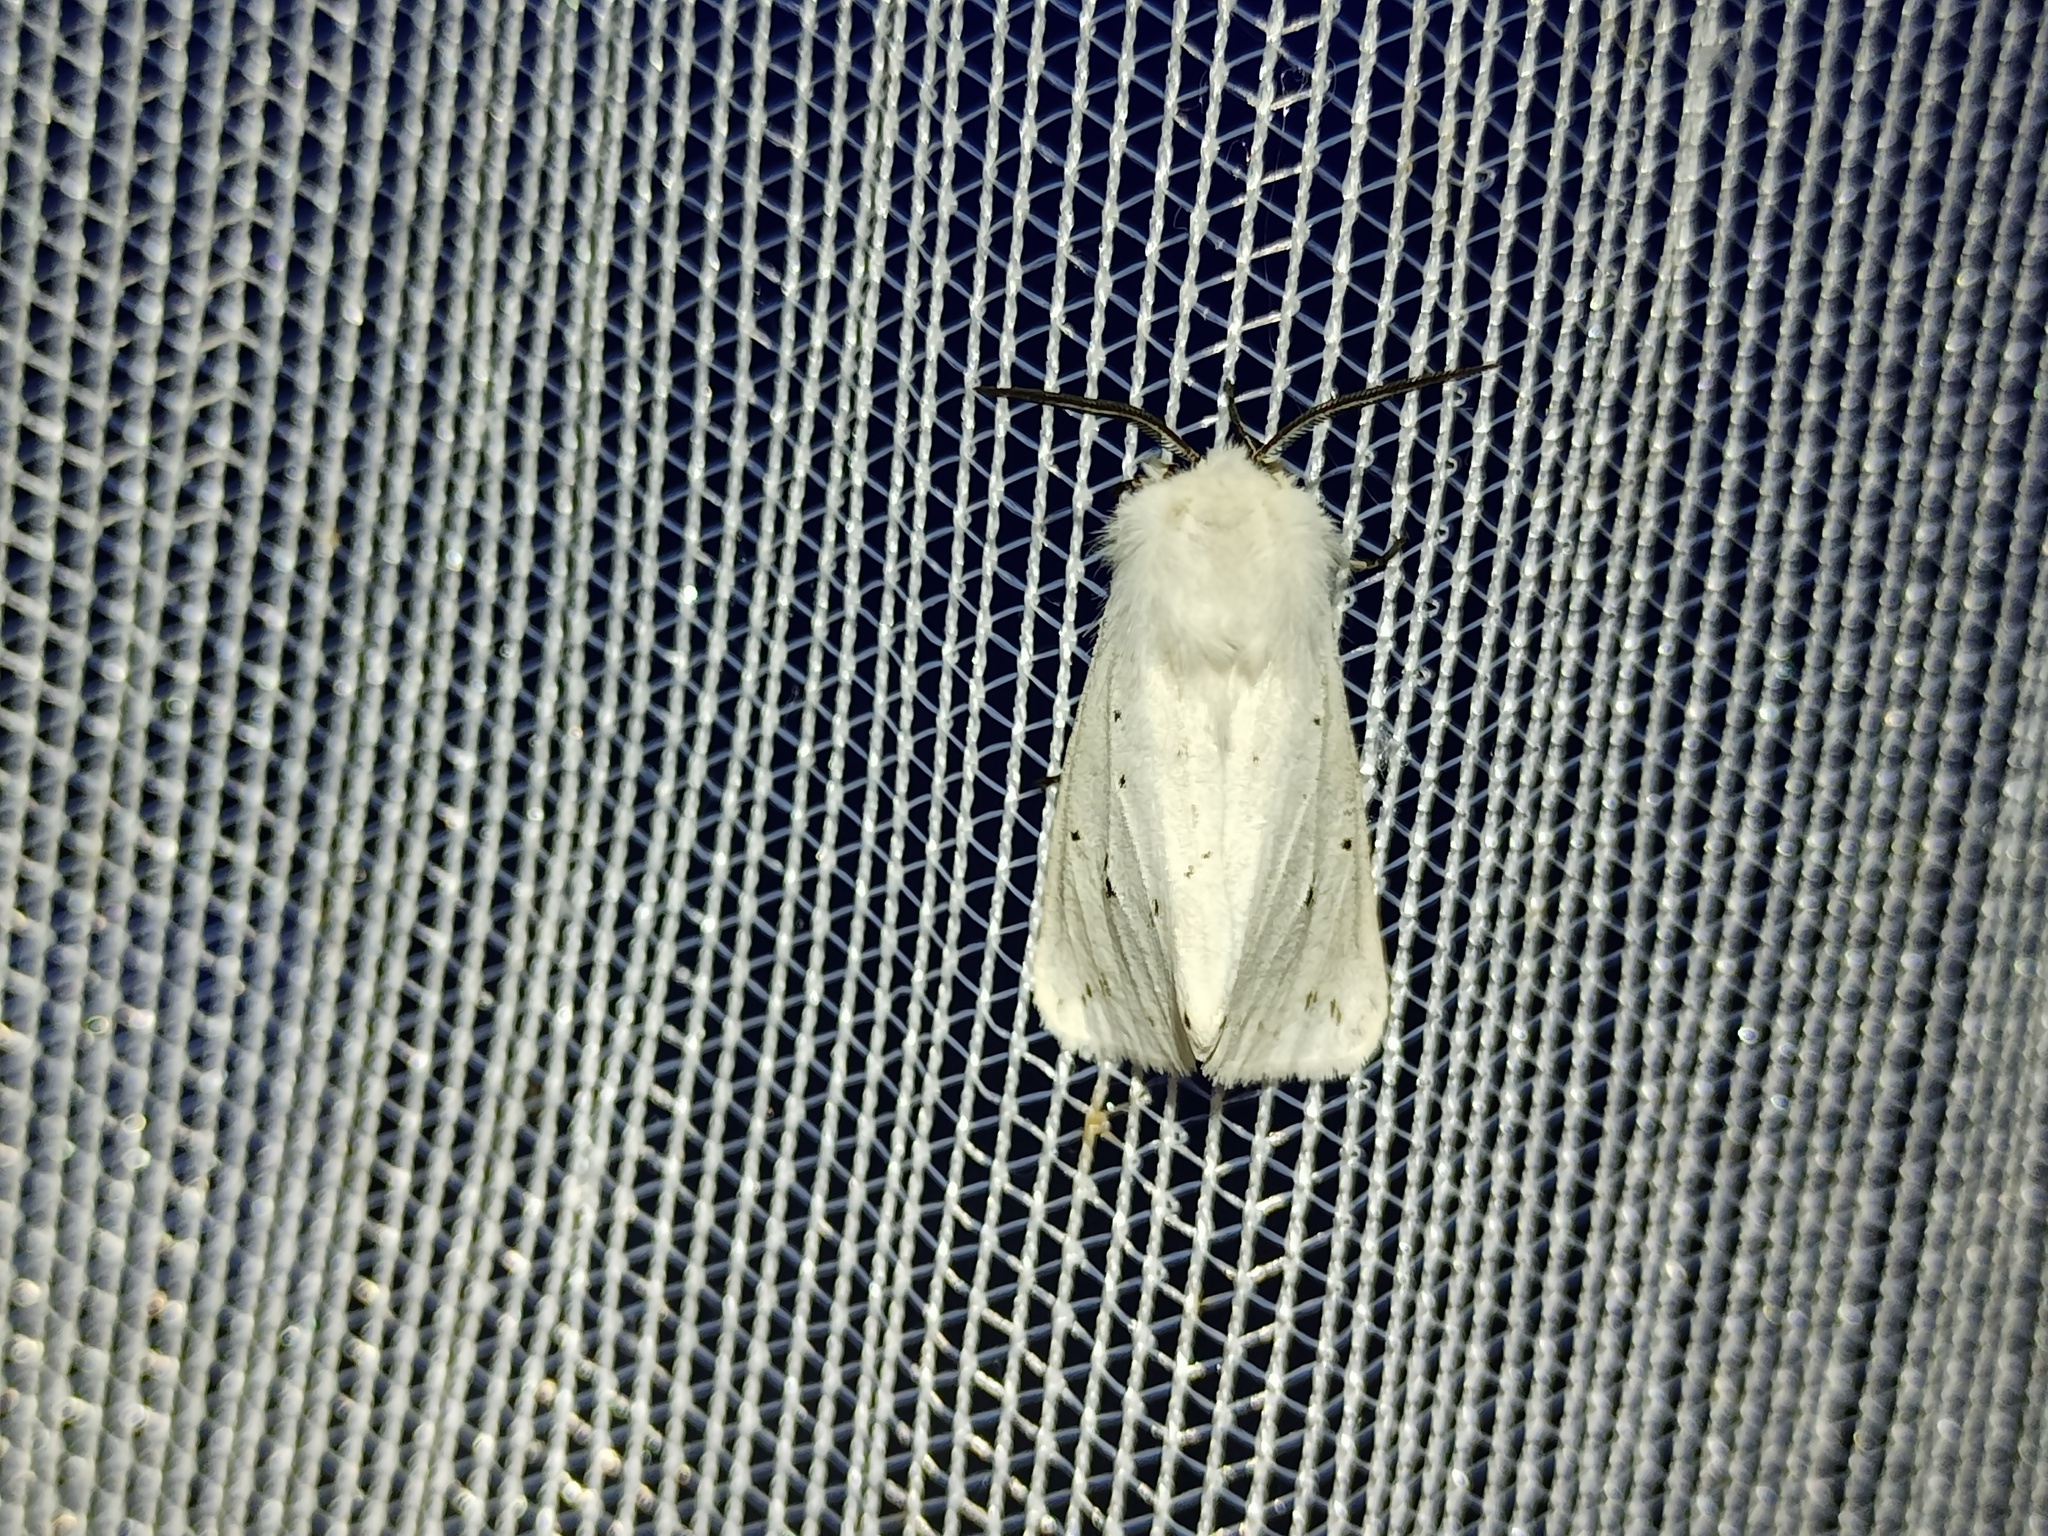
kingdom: Animalia
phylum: Arthropoda
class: Insecta
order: Lepidoptera
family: Erebidae
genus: Spilosoma
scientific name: Spilosoma lubricipeda
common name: White ermine
